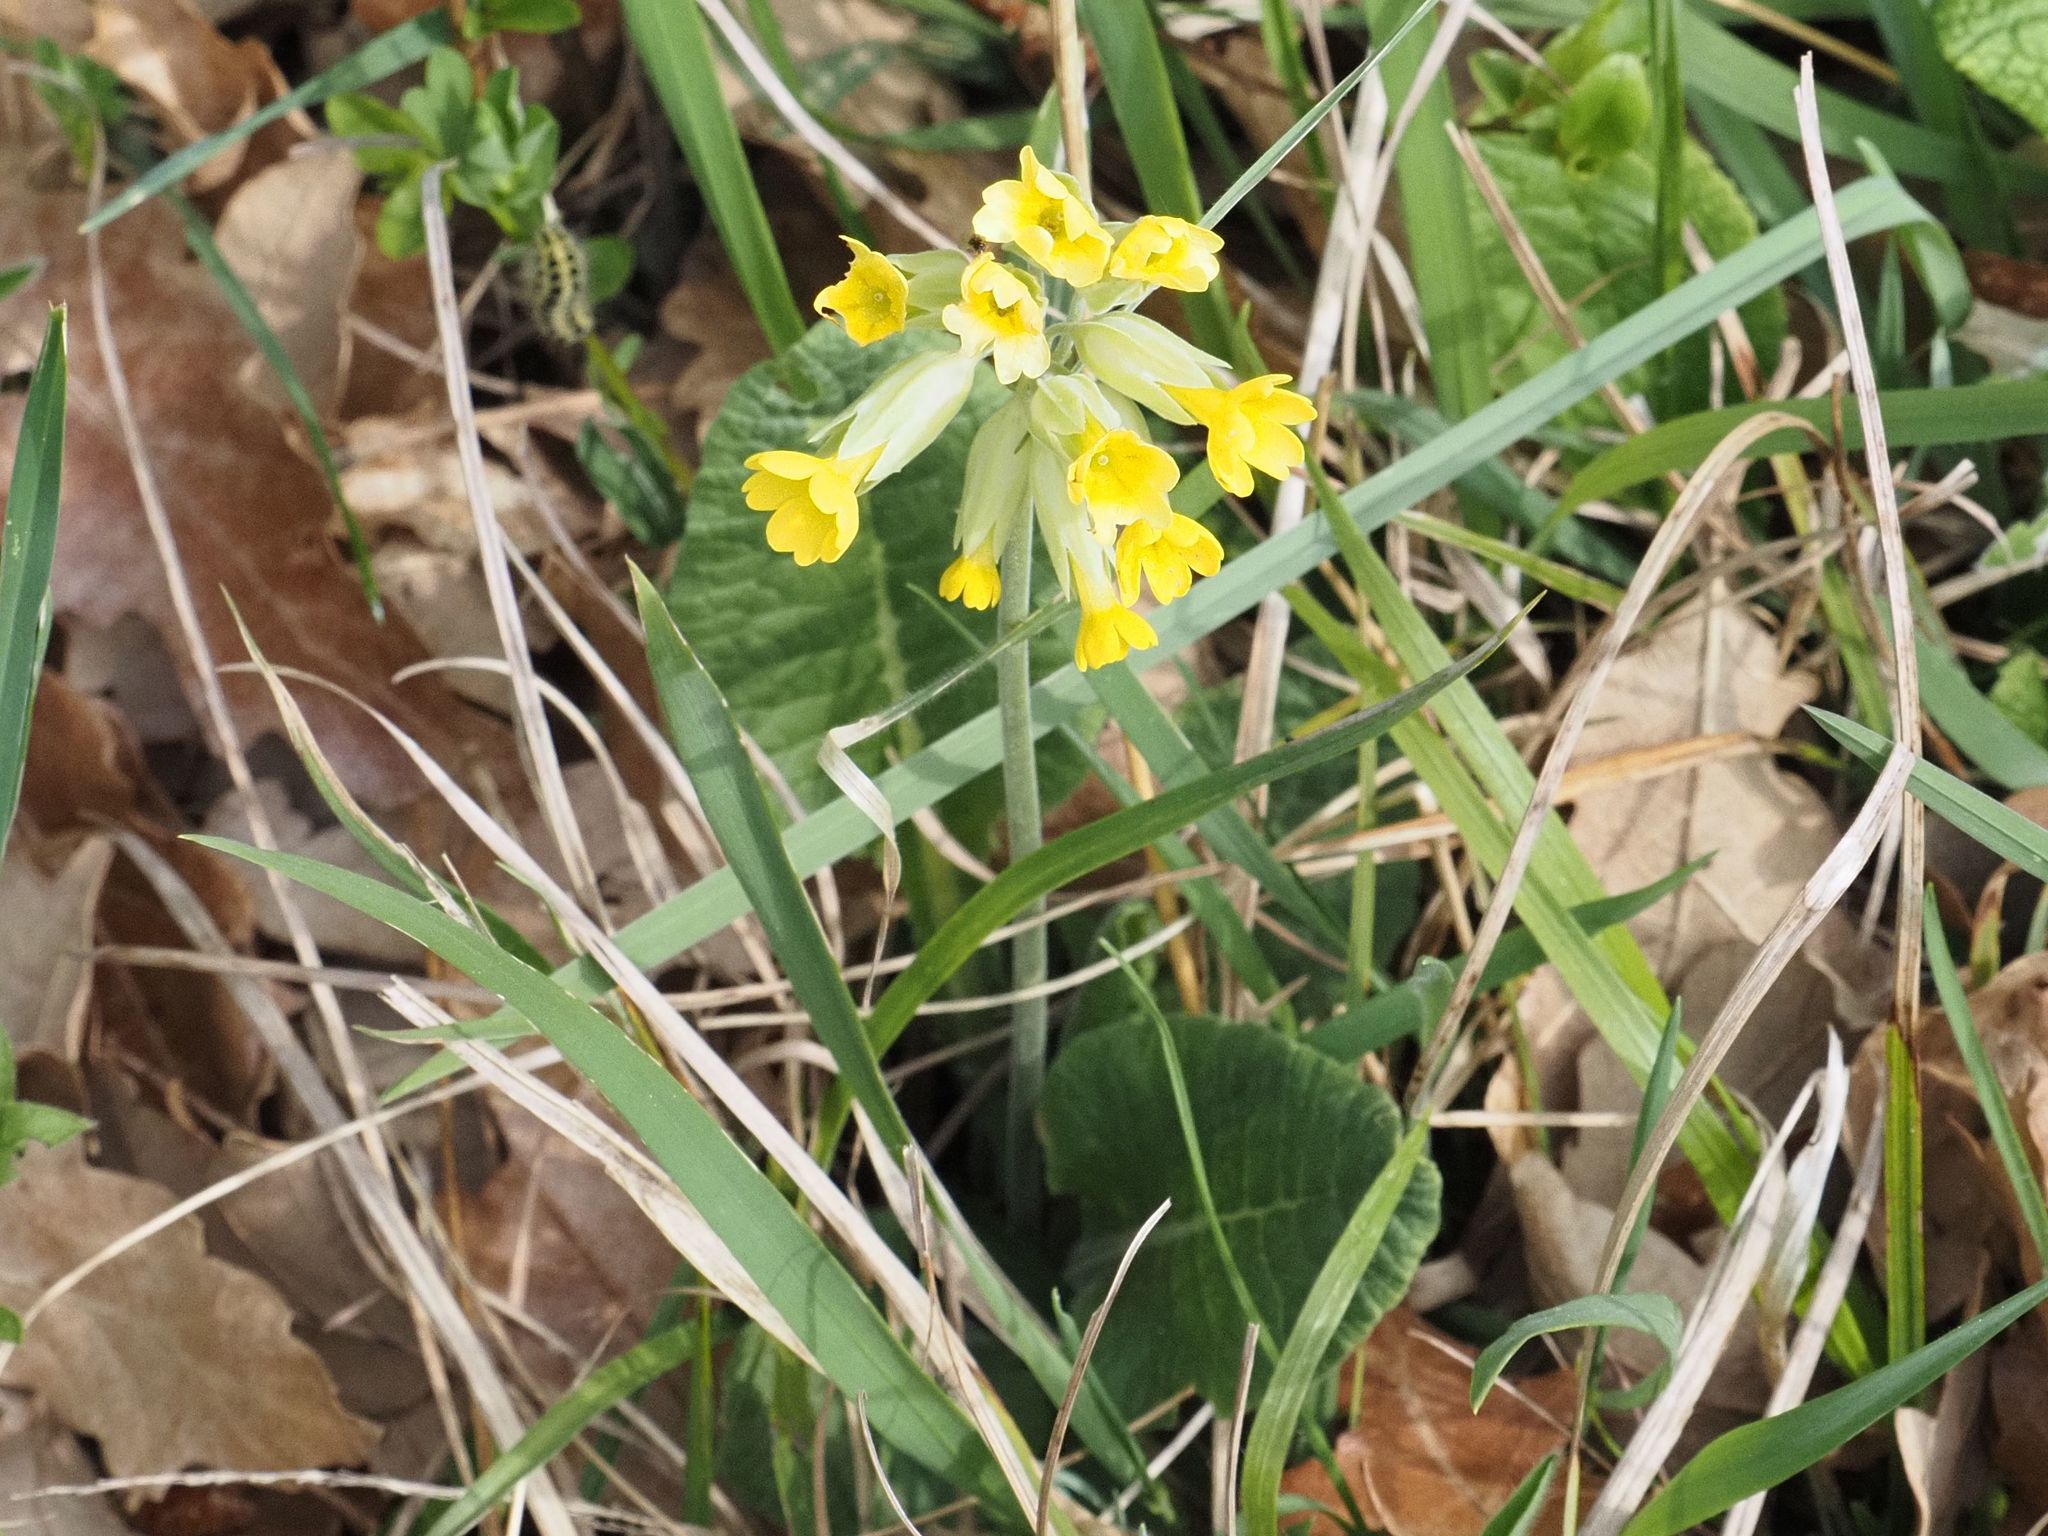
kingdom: Plantae
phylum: Tracheophyta
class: Magnoliopsida
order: Ericales
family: Primulaceae
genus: Primula
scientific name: Primula veris
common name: Cowslip
